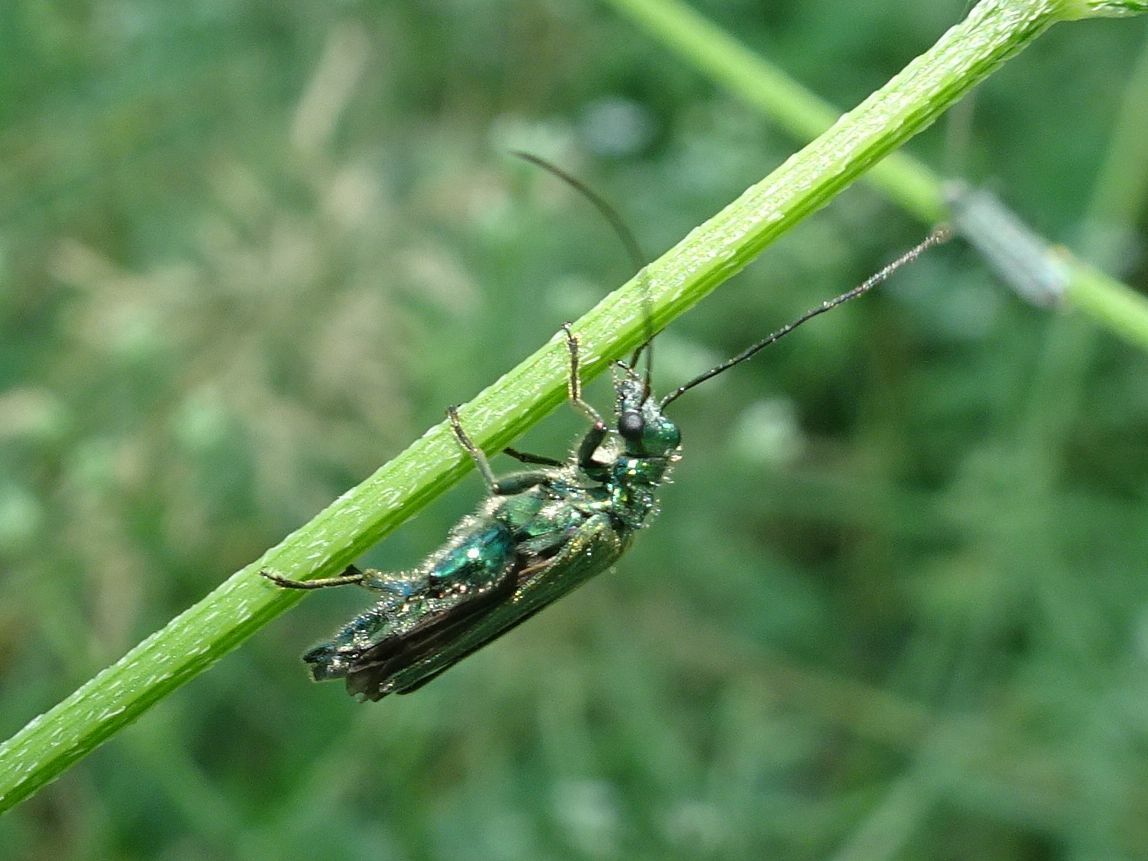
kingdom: Animalia
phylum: Arthropoda
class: Insecta
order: Coleoptera
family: Oedemeridae
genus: Oedemera
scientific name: Oedemera nobilis
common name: Swollen-thighed beetle
